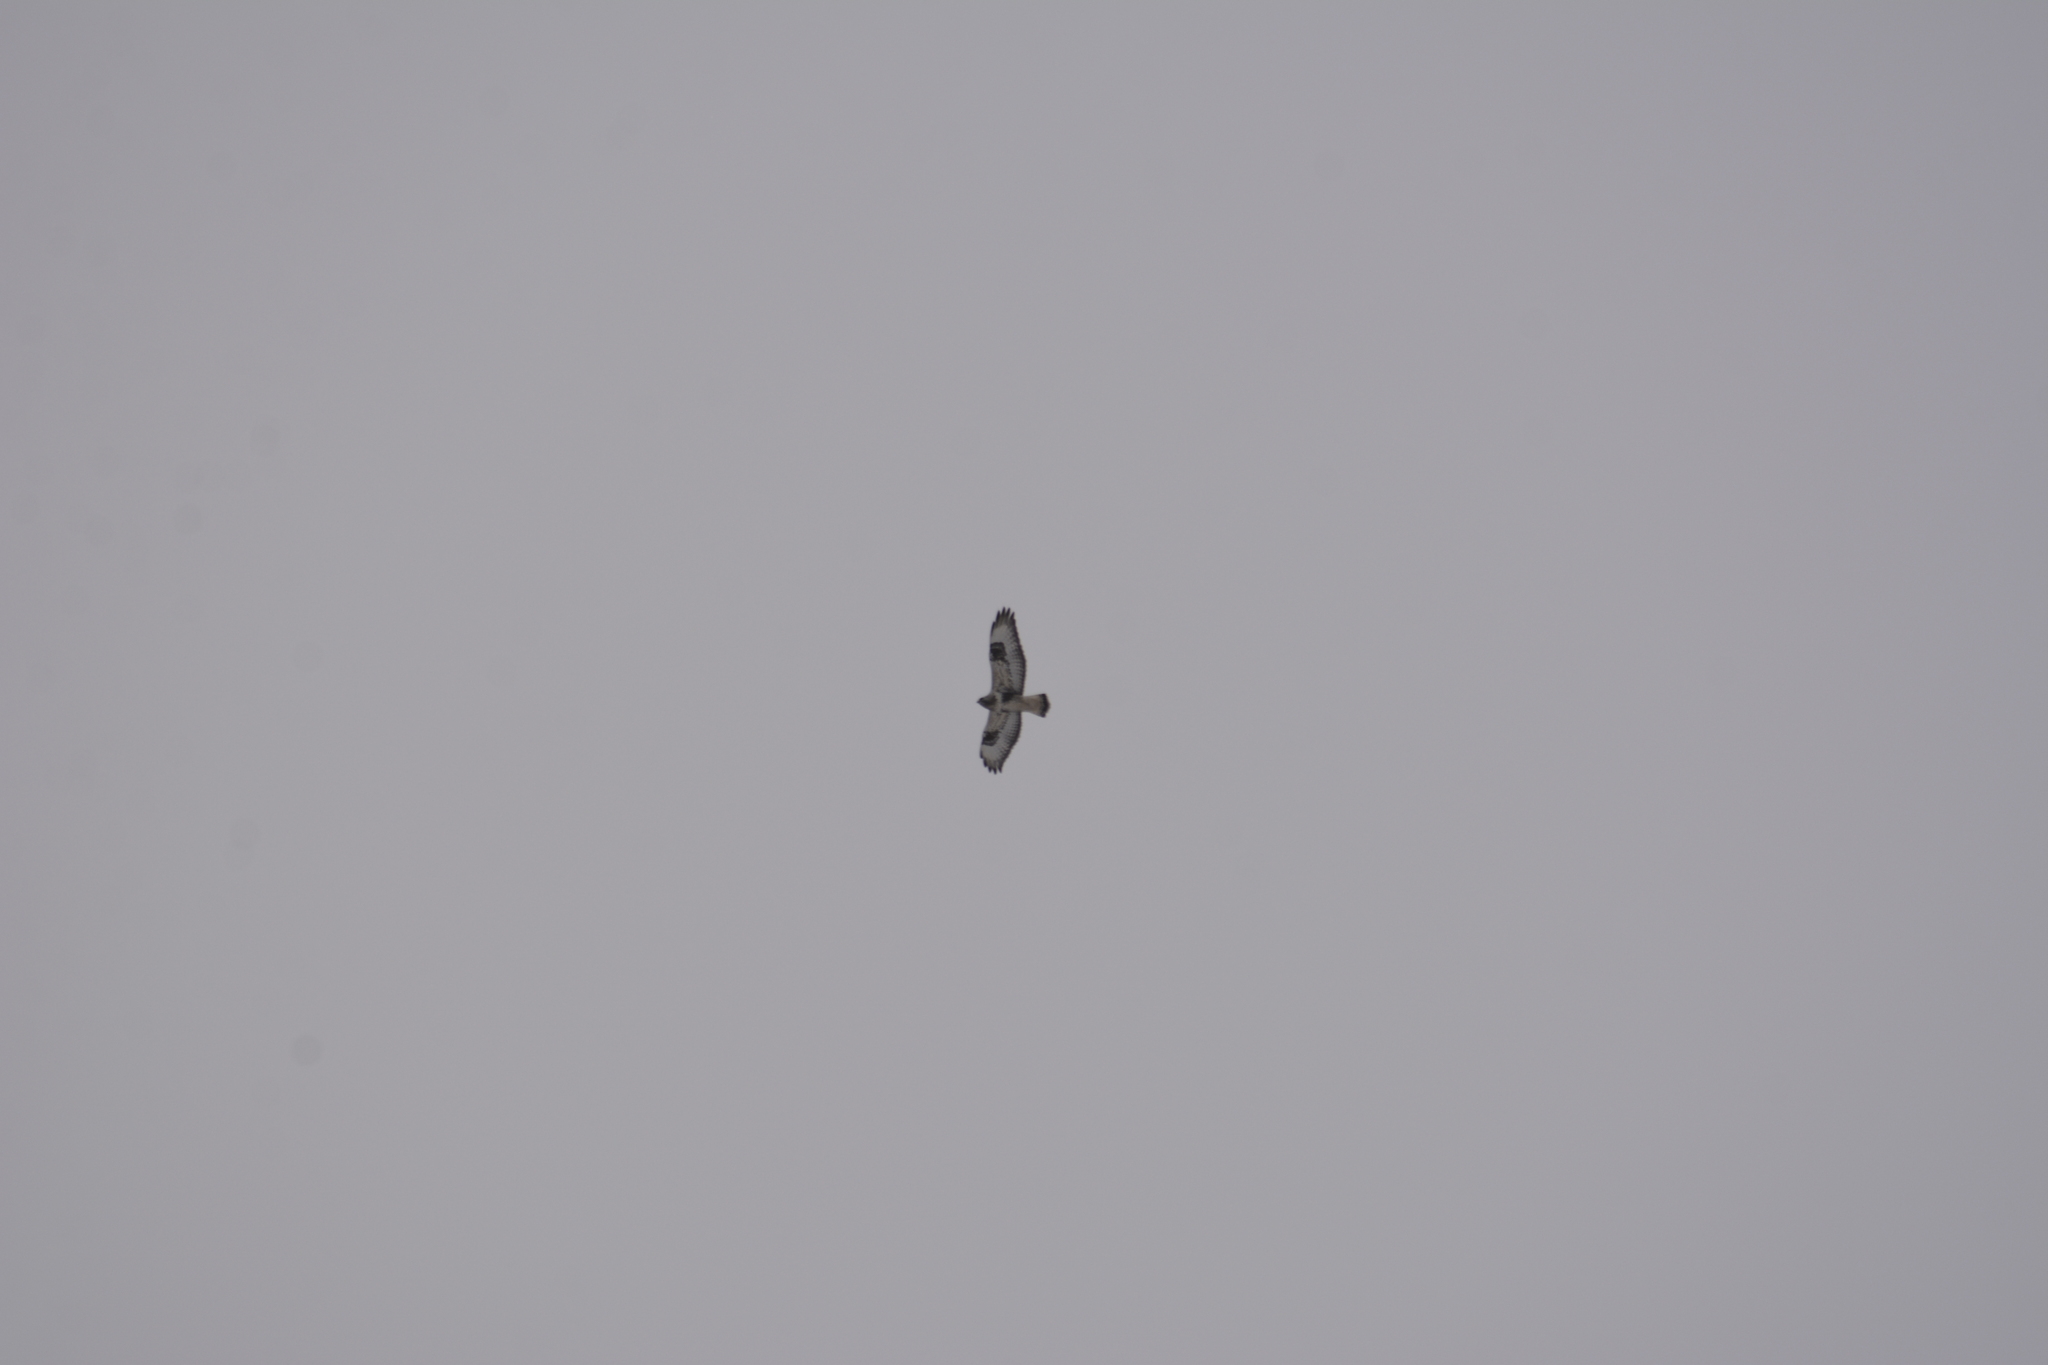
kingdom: Animalia
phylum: Chordata
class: Aves
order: Accipitriformes
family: Accipitridae
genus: Buteo
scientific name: Buteo lagopus
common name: Rough-legged buzzard
